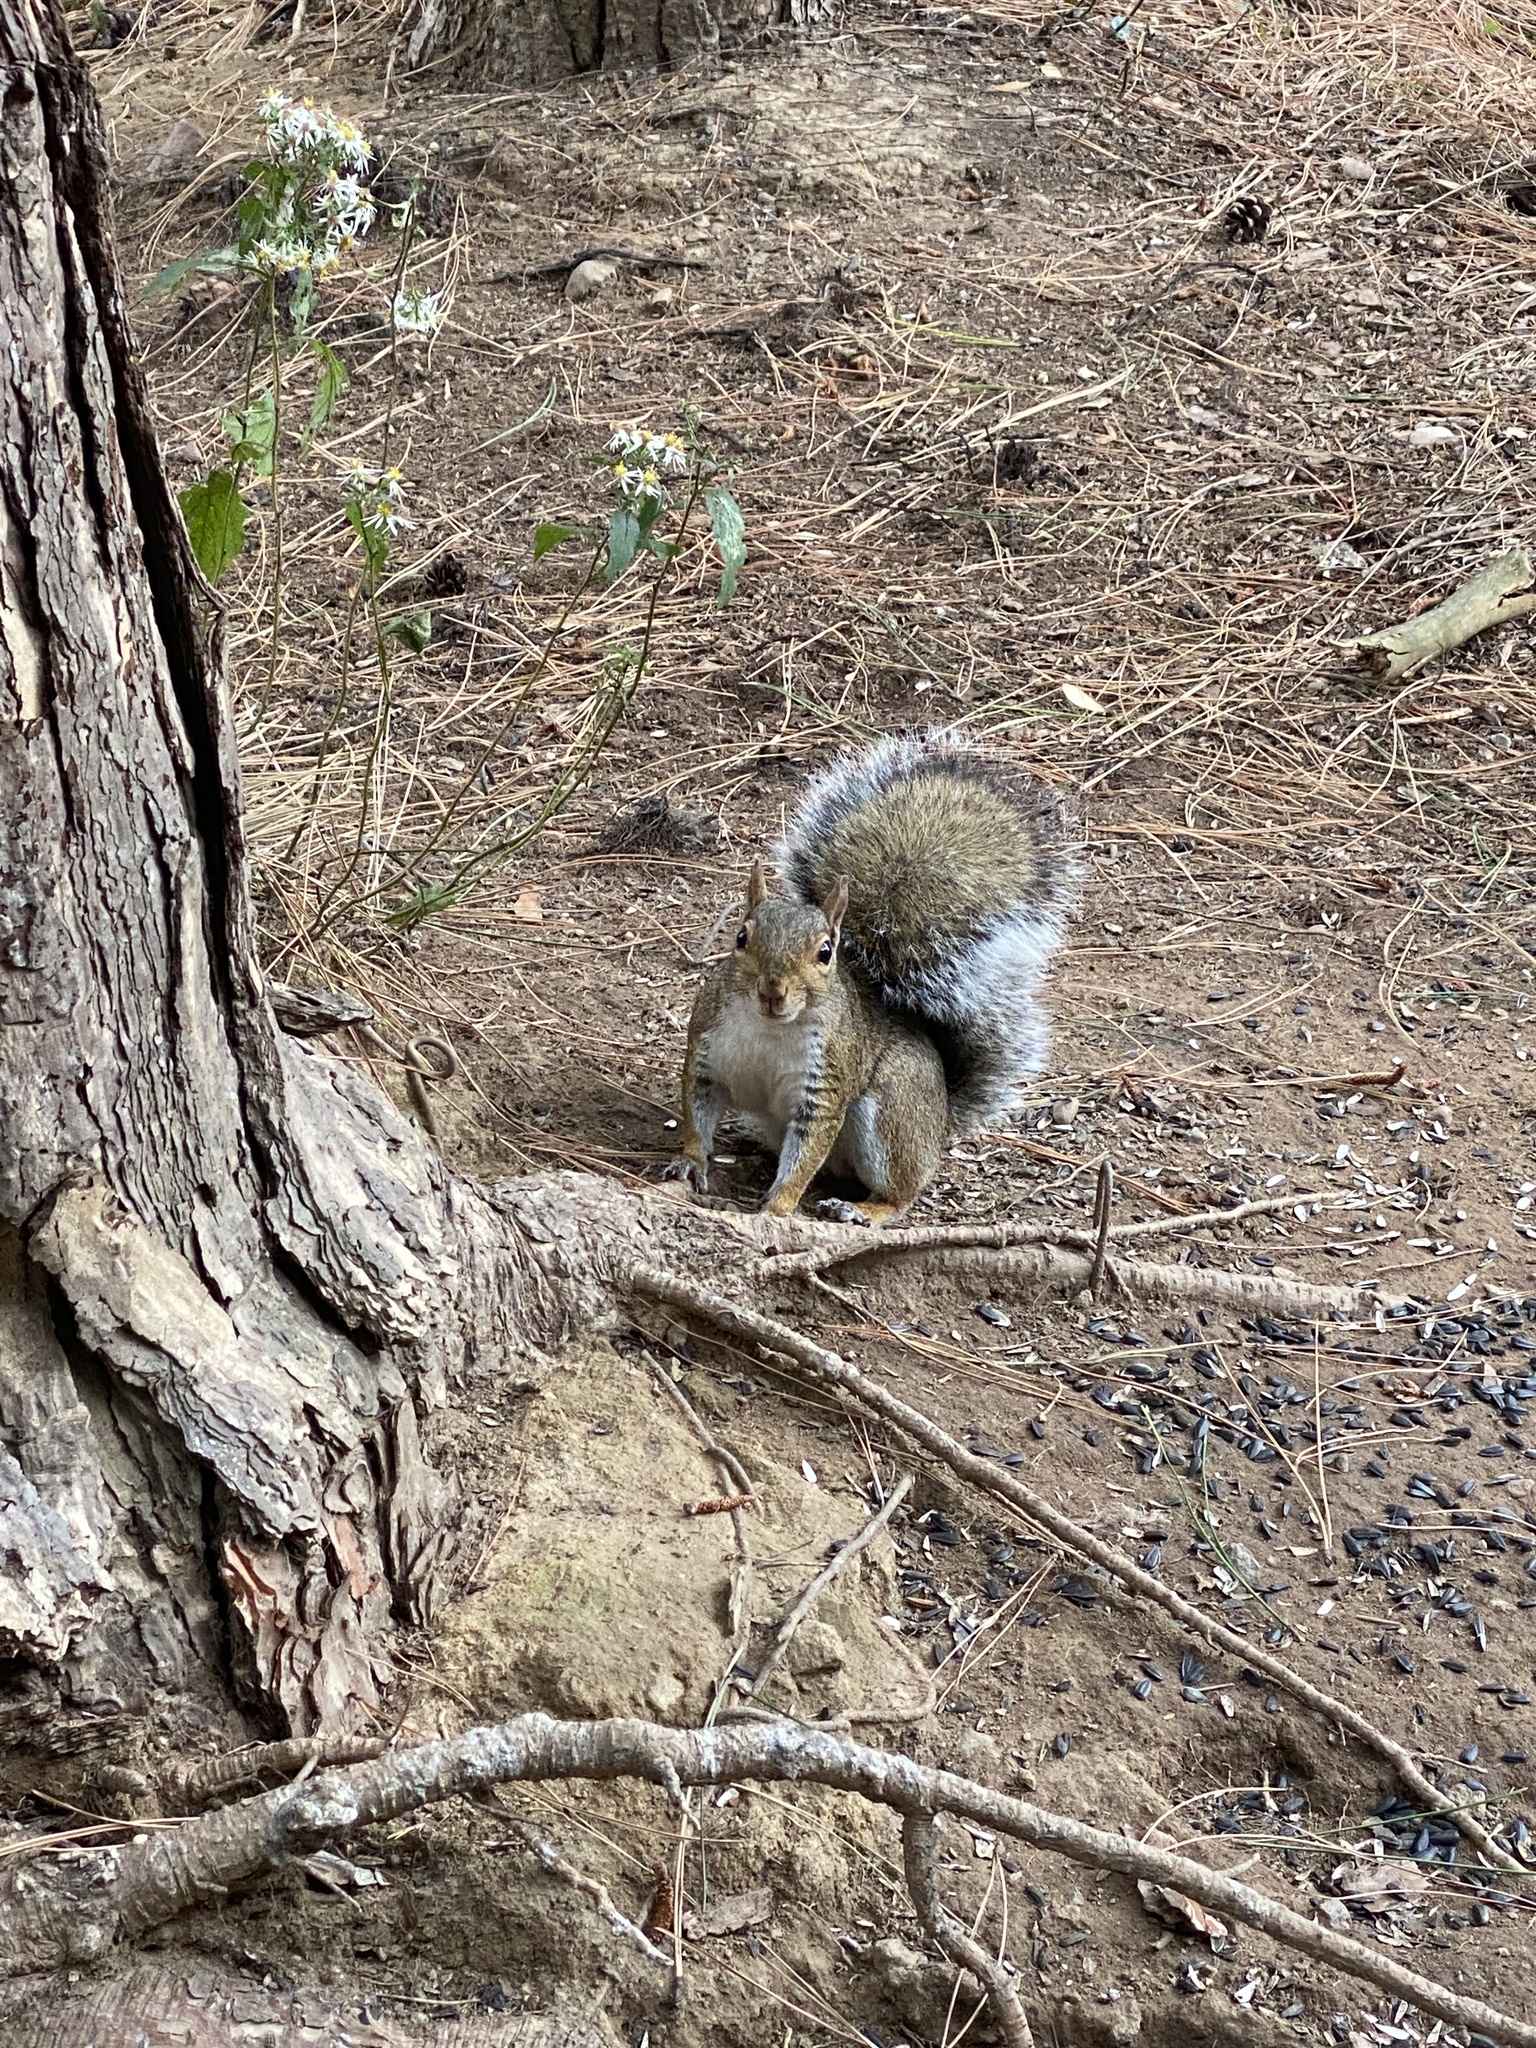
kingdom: Animalia
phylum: Chordata
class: Mammalia
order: Rodentia
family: Sciuridae
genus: Sciurus
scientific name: Sciurus carolinensis
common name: Eastern gray squirrel
